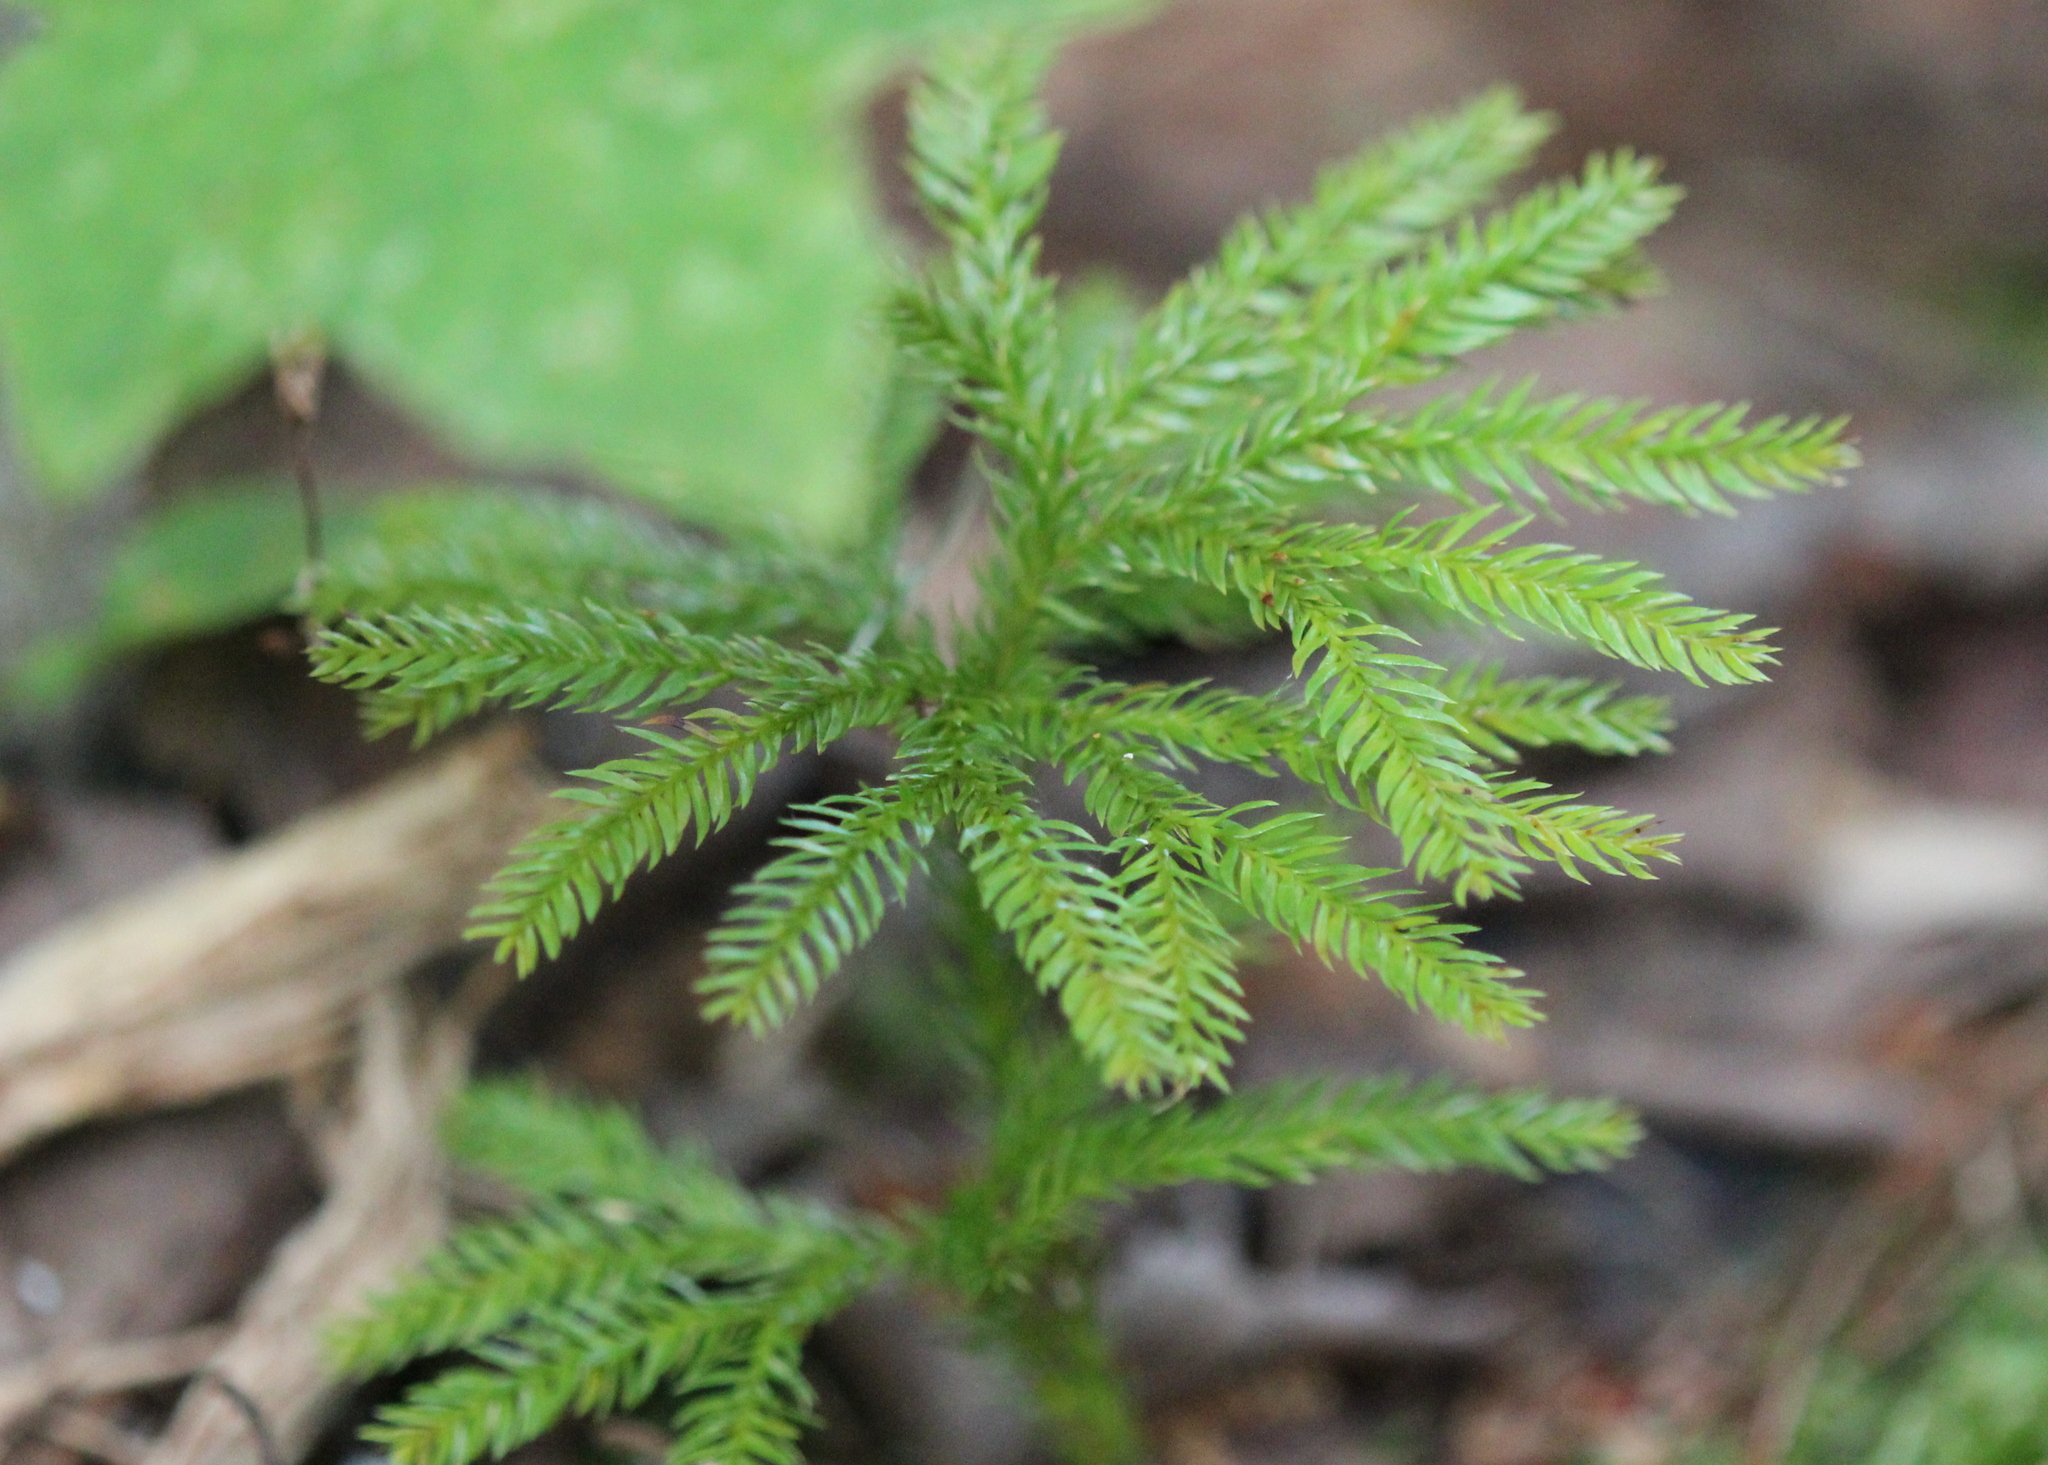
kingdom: Plantae
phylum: Tracheophyta
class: Lycopodiopsida
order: Lycopodiales
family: Lycopodiaceae
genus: Dendrolycopodium
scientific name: Dendrolycopodium obscurum
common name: Common ground-pine
